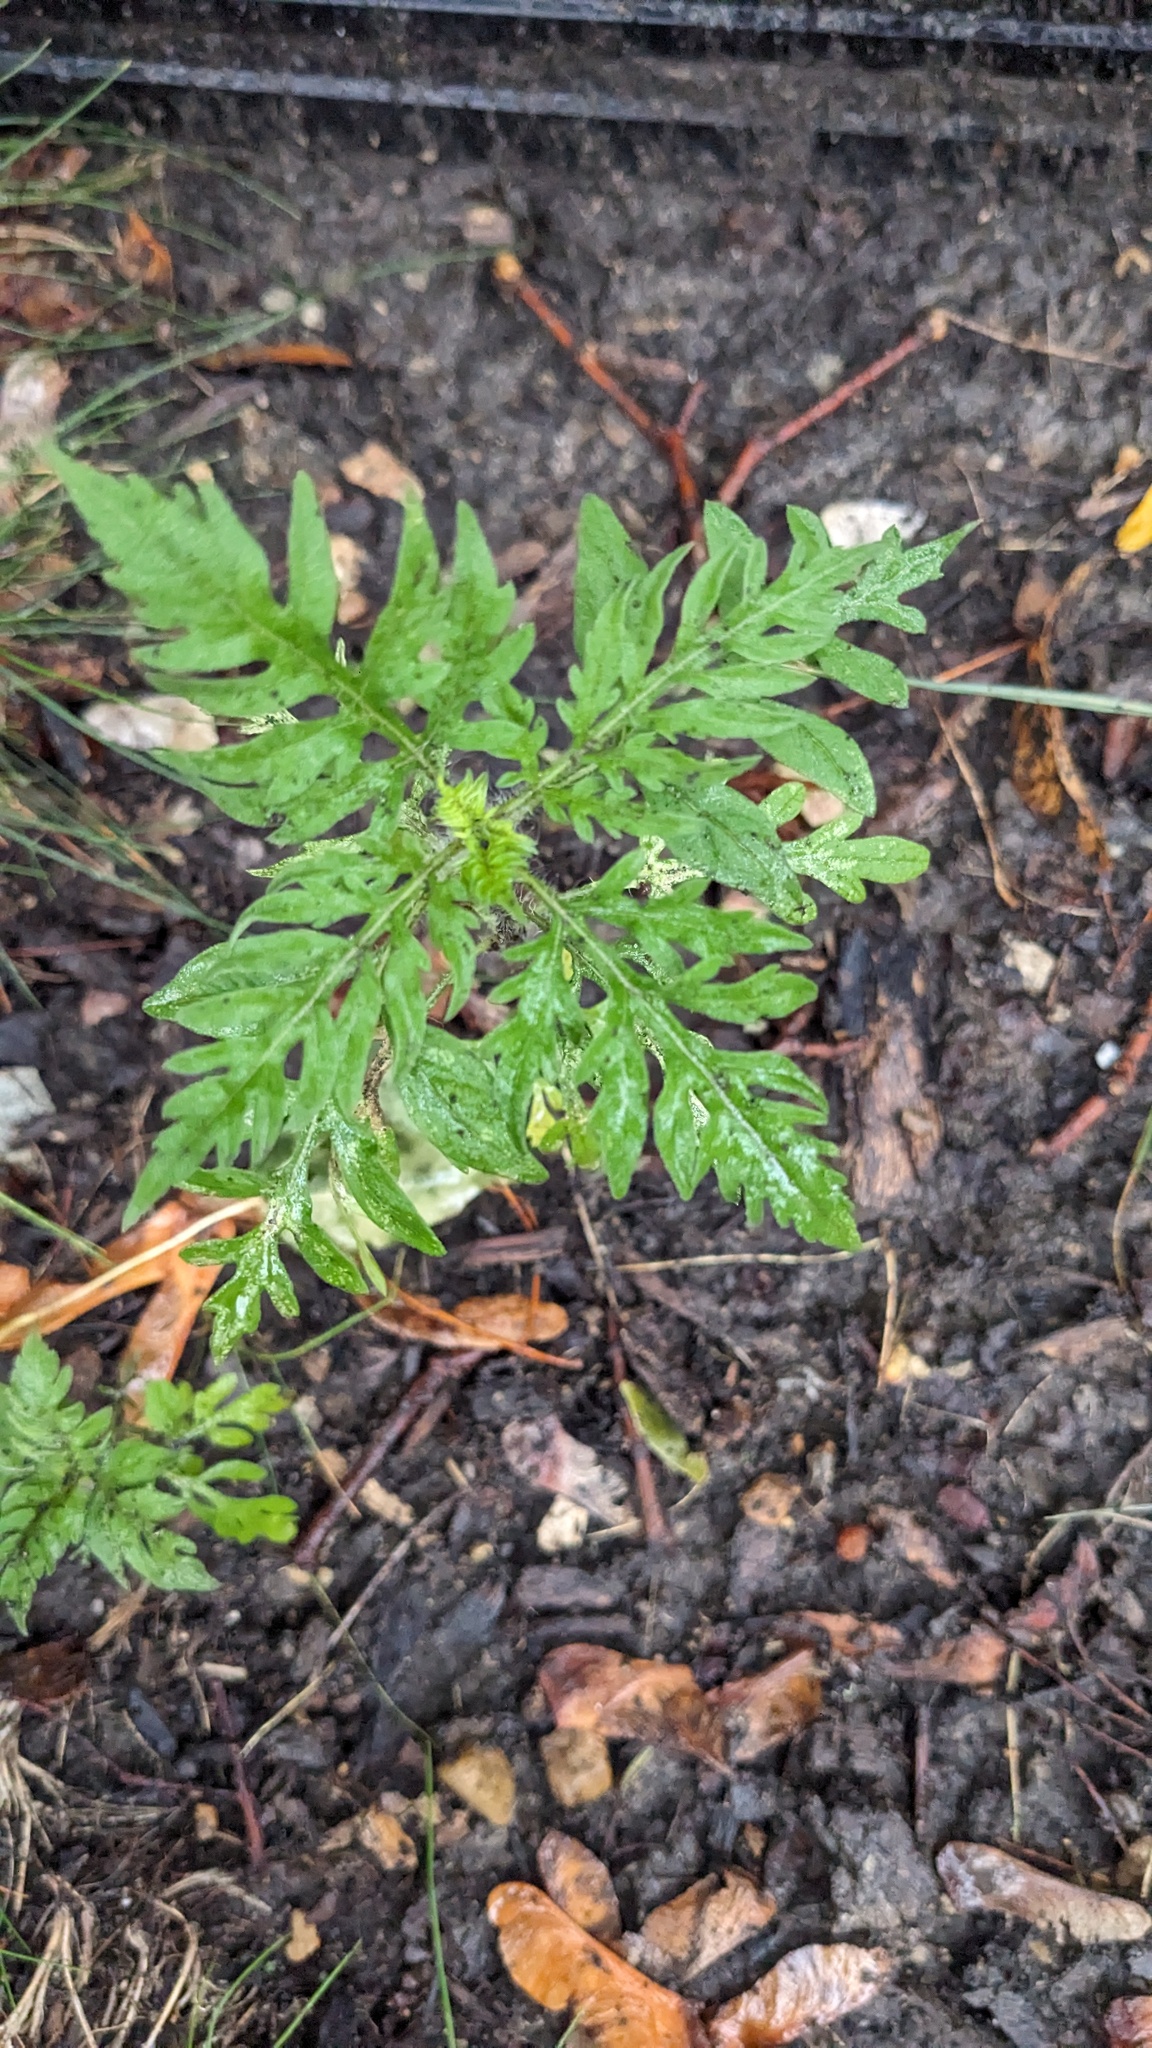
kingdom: Plantae
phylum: Tracheophyta
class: Magnoliopsida
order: Asterales
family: Asteraceae
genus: Ambrosia
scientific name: Ambrosia artemisiifolia
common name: Annual ragweed
